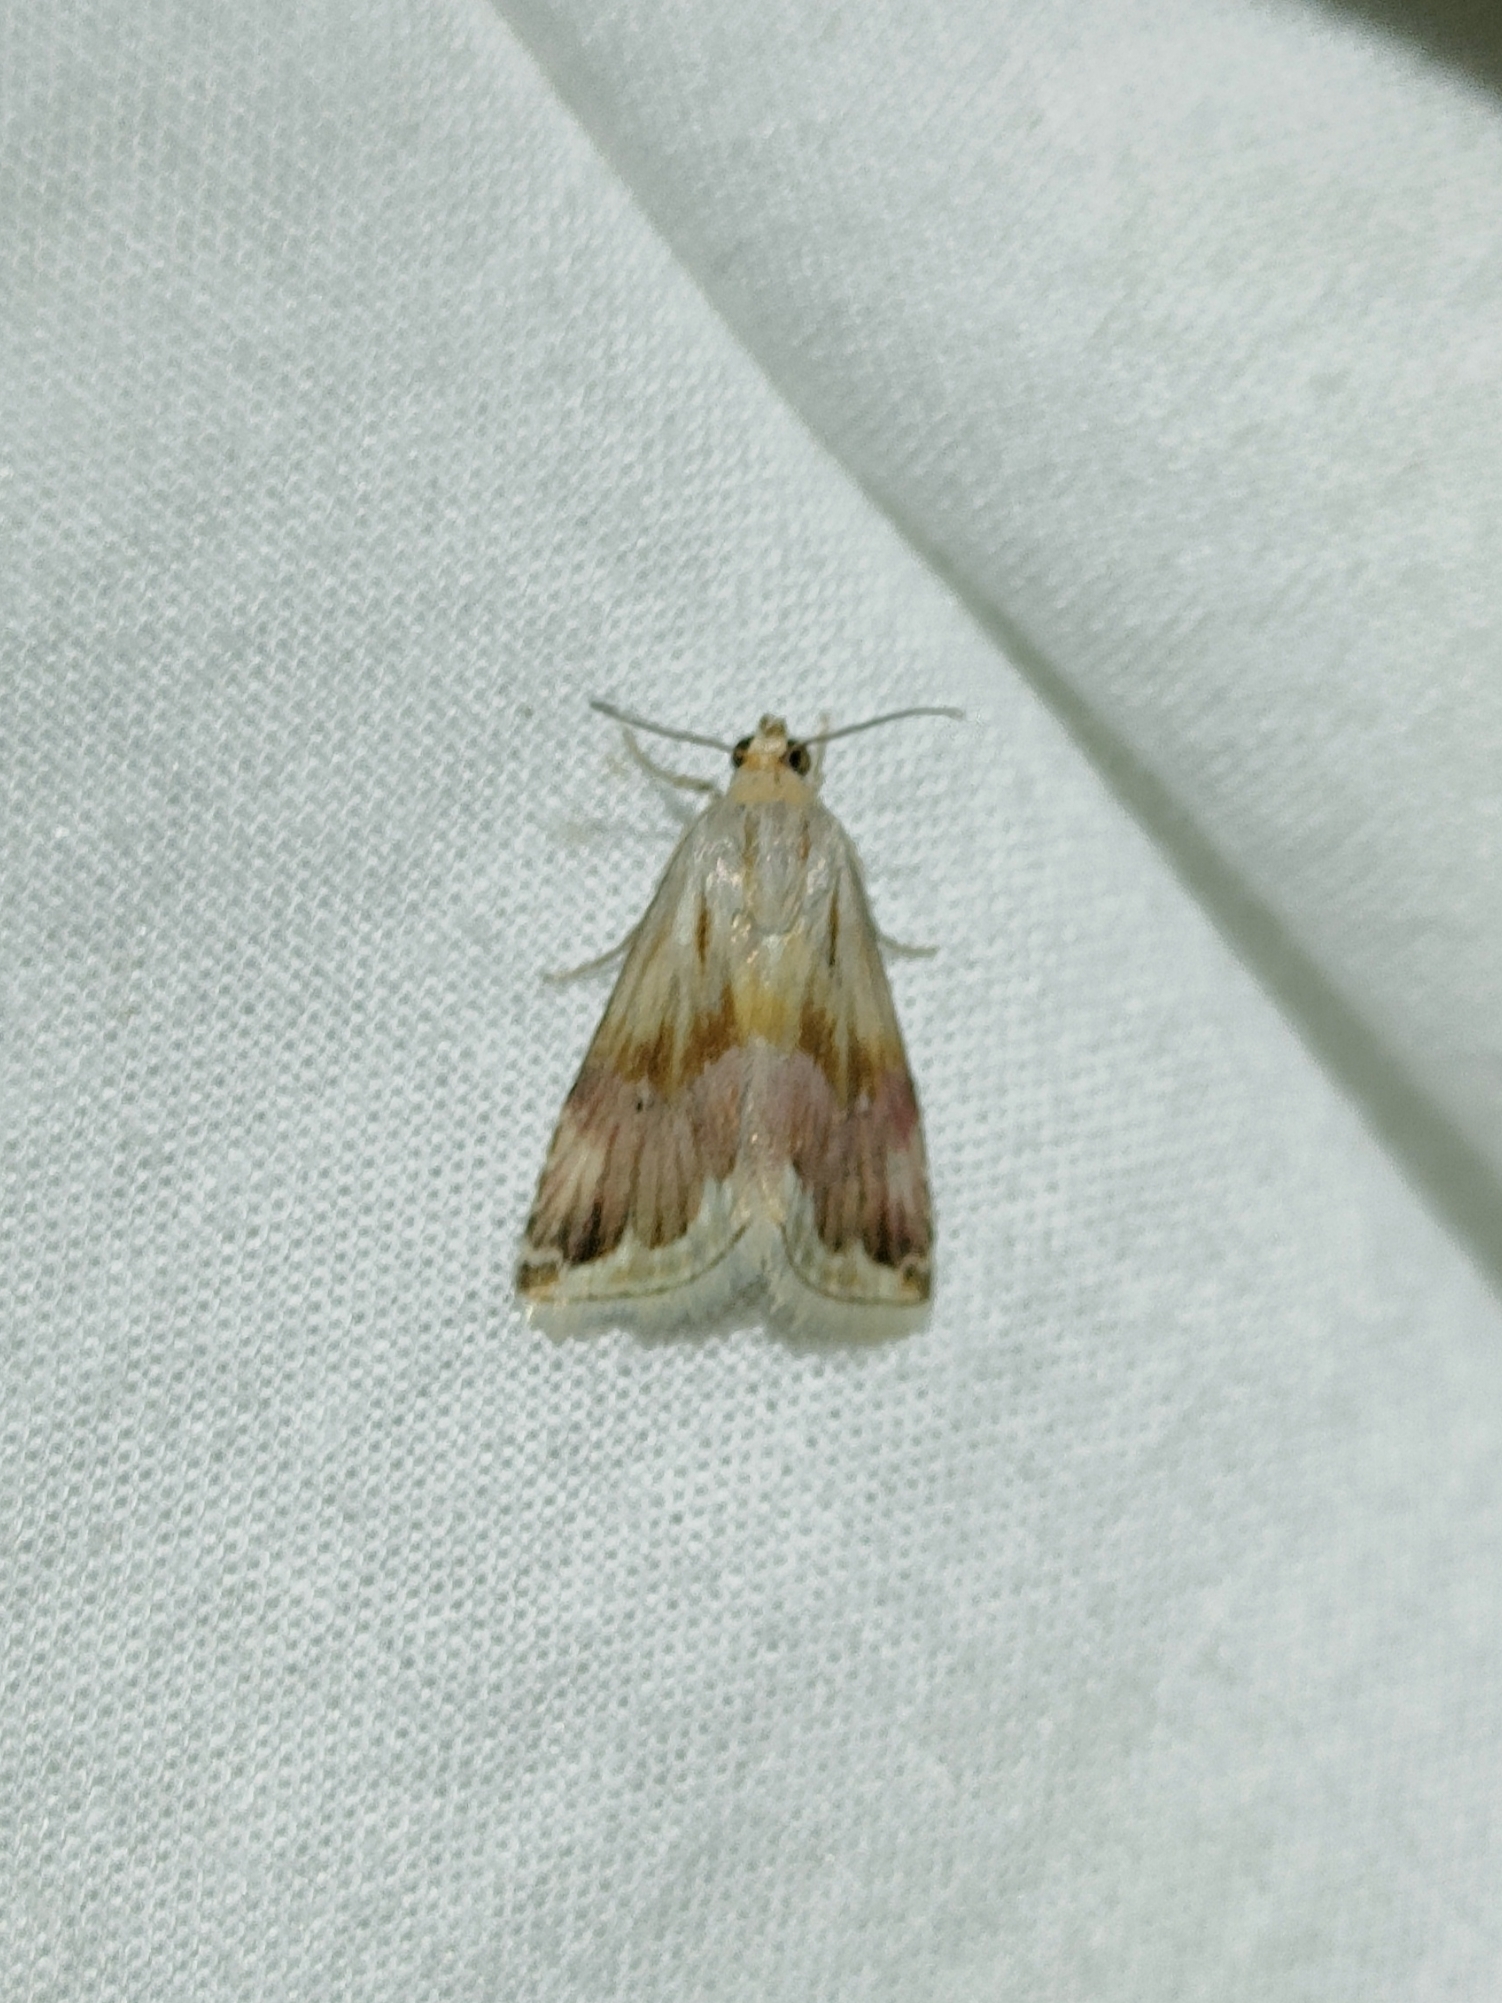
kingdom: Animalia
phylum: Arthropoda
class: Insecta
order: Lepidoptera
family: Noctuidae
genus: Eublemma
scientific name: Eublemma ostrina
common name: Purple marbled
